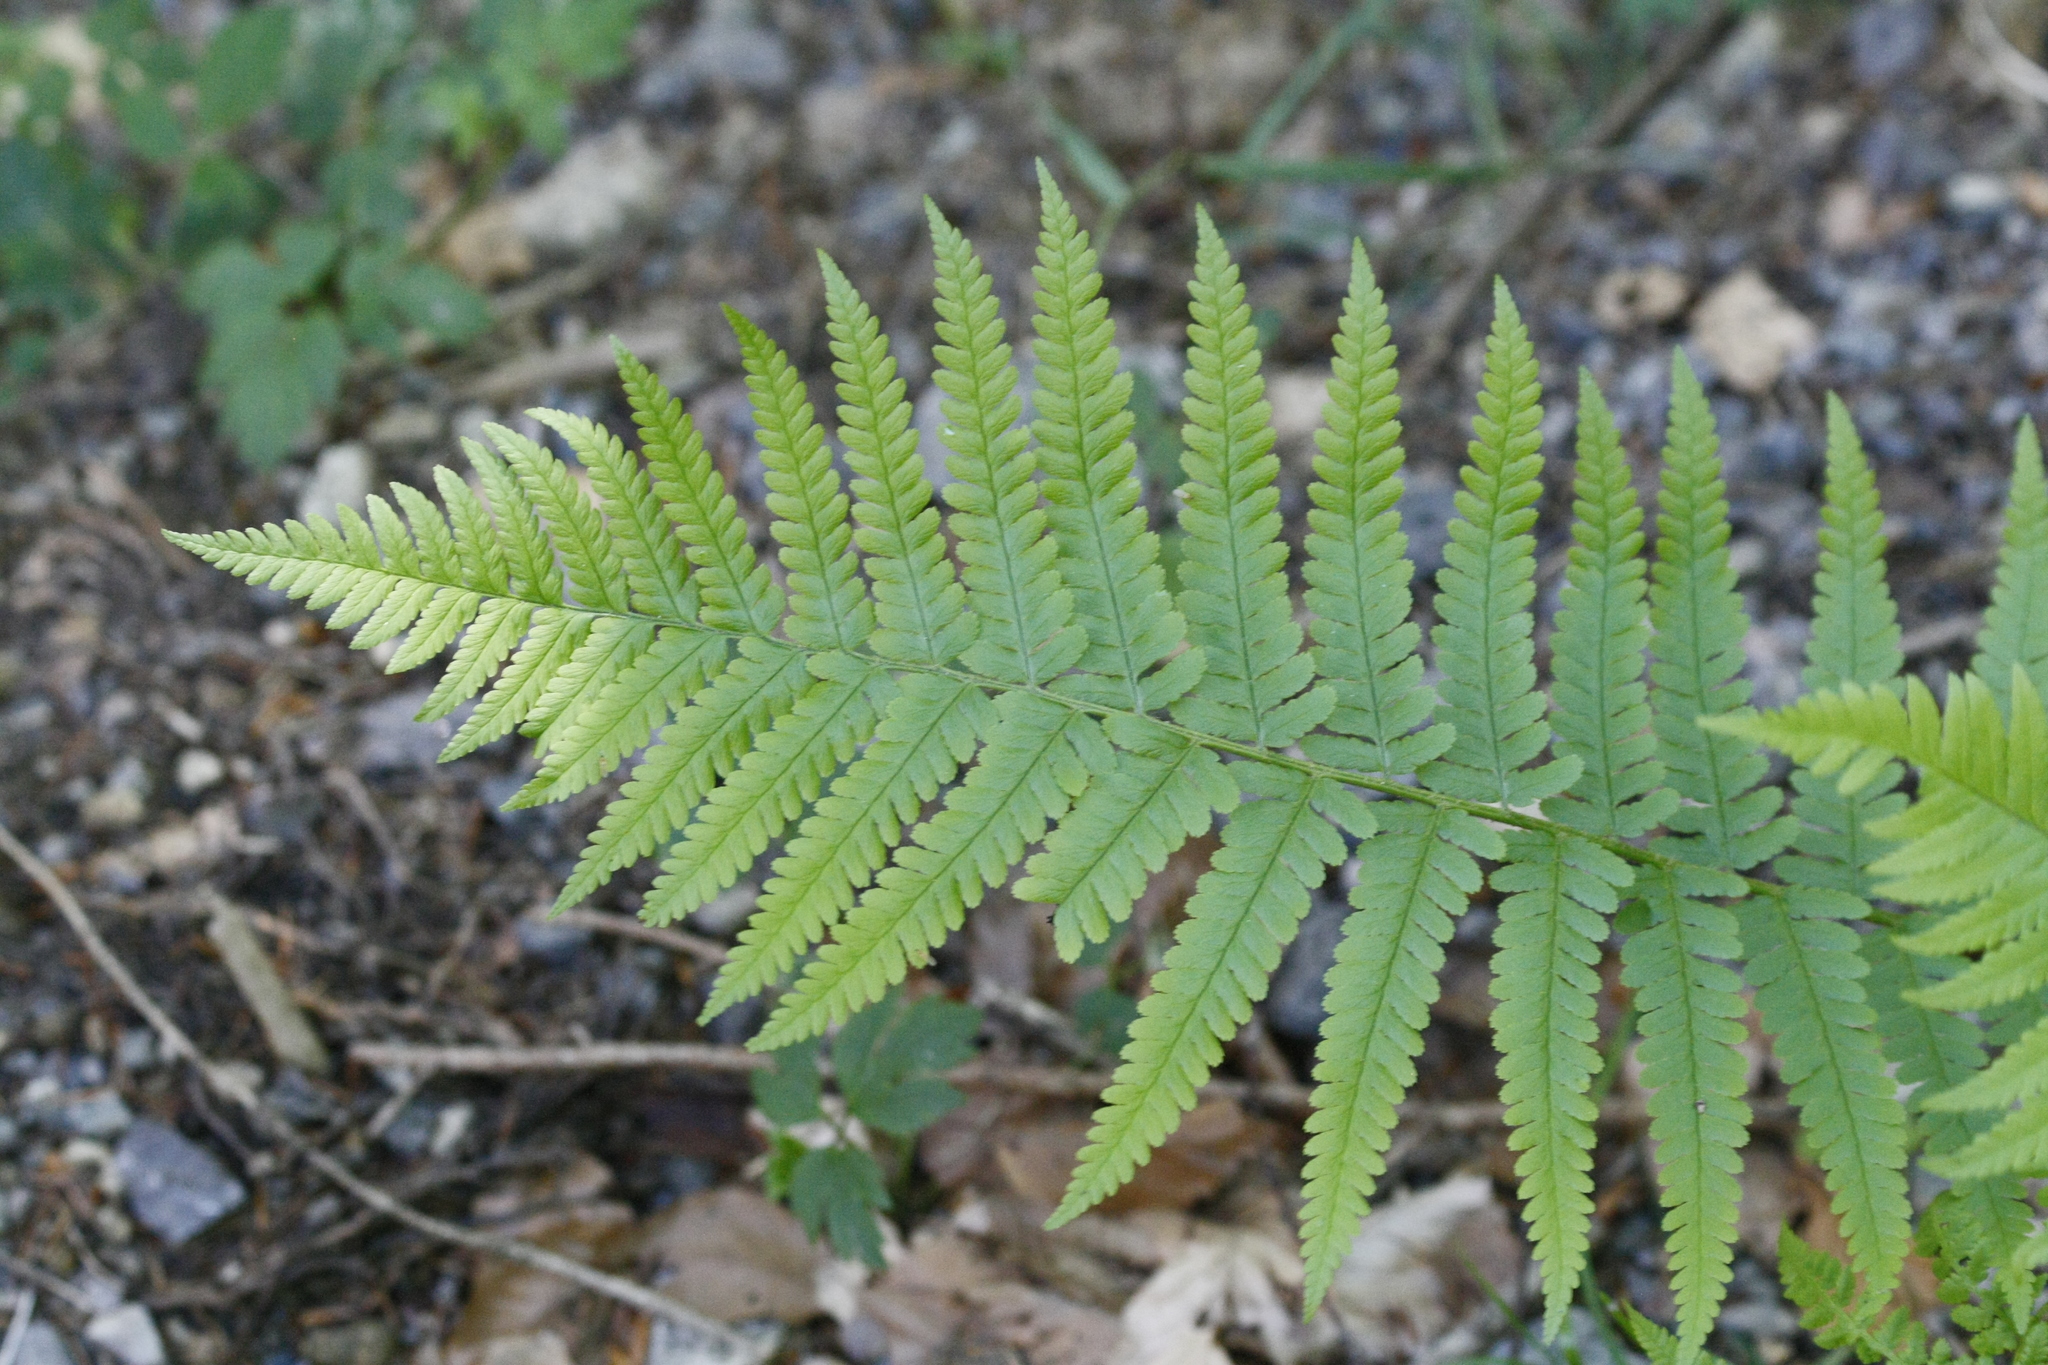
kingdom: Plantae
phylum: Tracheophyta
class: Polypodiopsida
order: Polypodiales
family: Dryopteridaceae
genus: Dryopteris
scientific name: Dryopteris filix-mas
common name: Male fern
